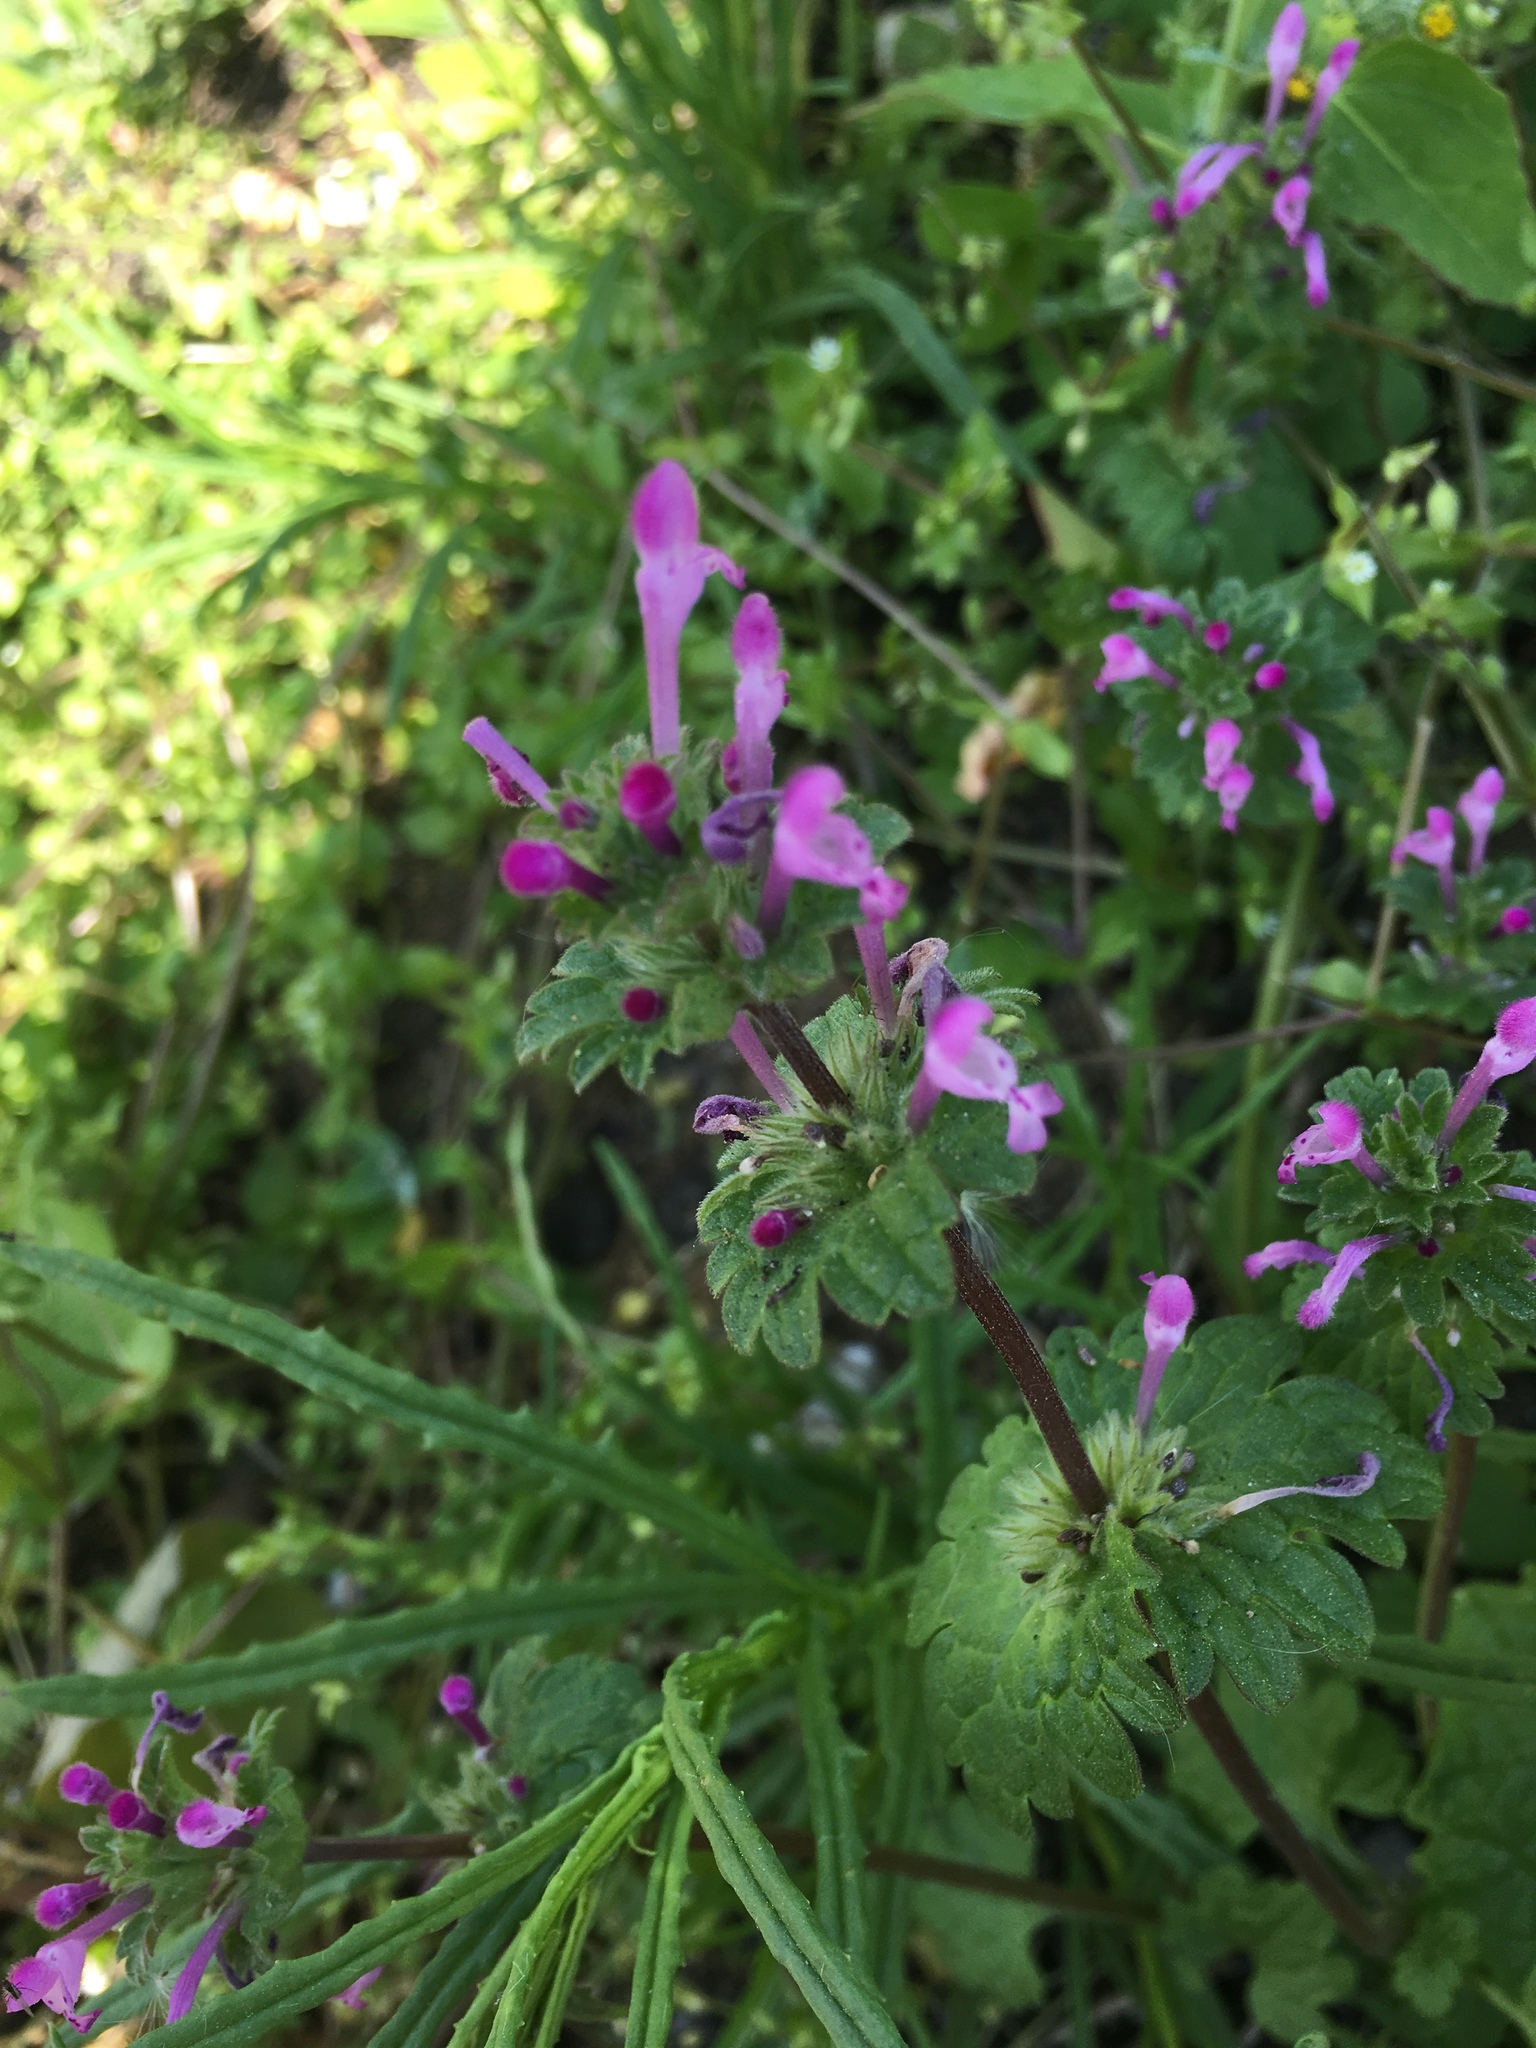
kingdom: Plantae
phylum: Tracheophyta
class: Magnoliopsida
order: Lamiales
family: Lamiaceae
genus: Lamium
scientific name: Lamium amplexicaule
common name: Henbit dead-nettle
